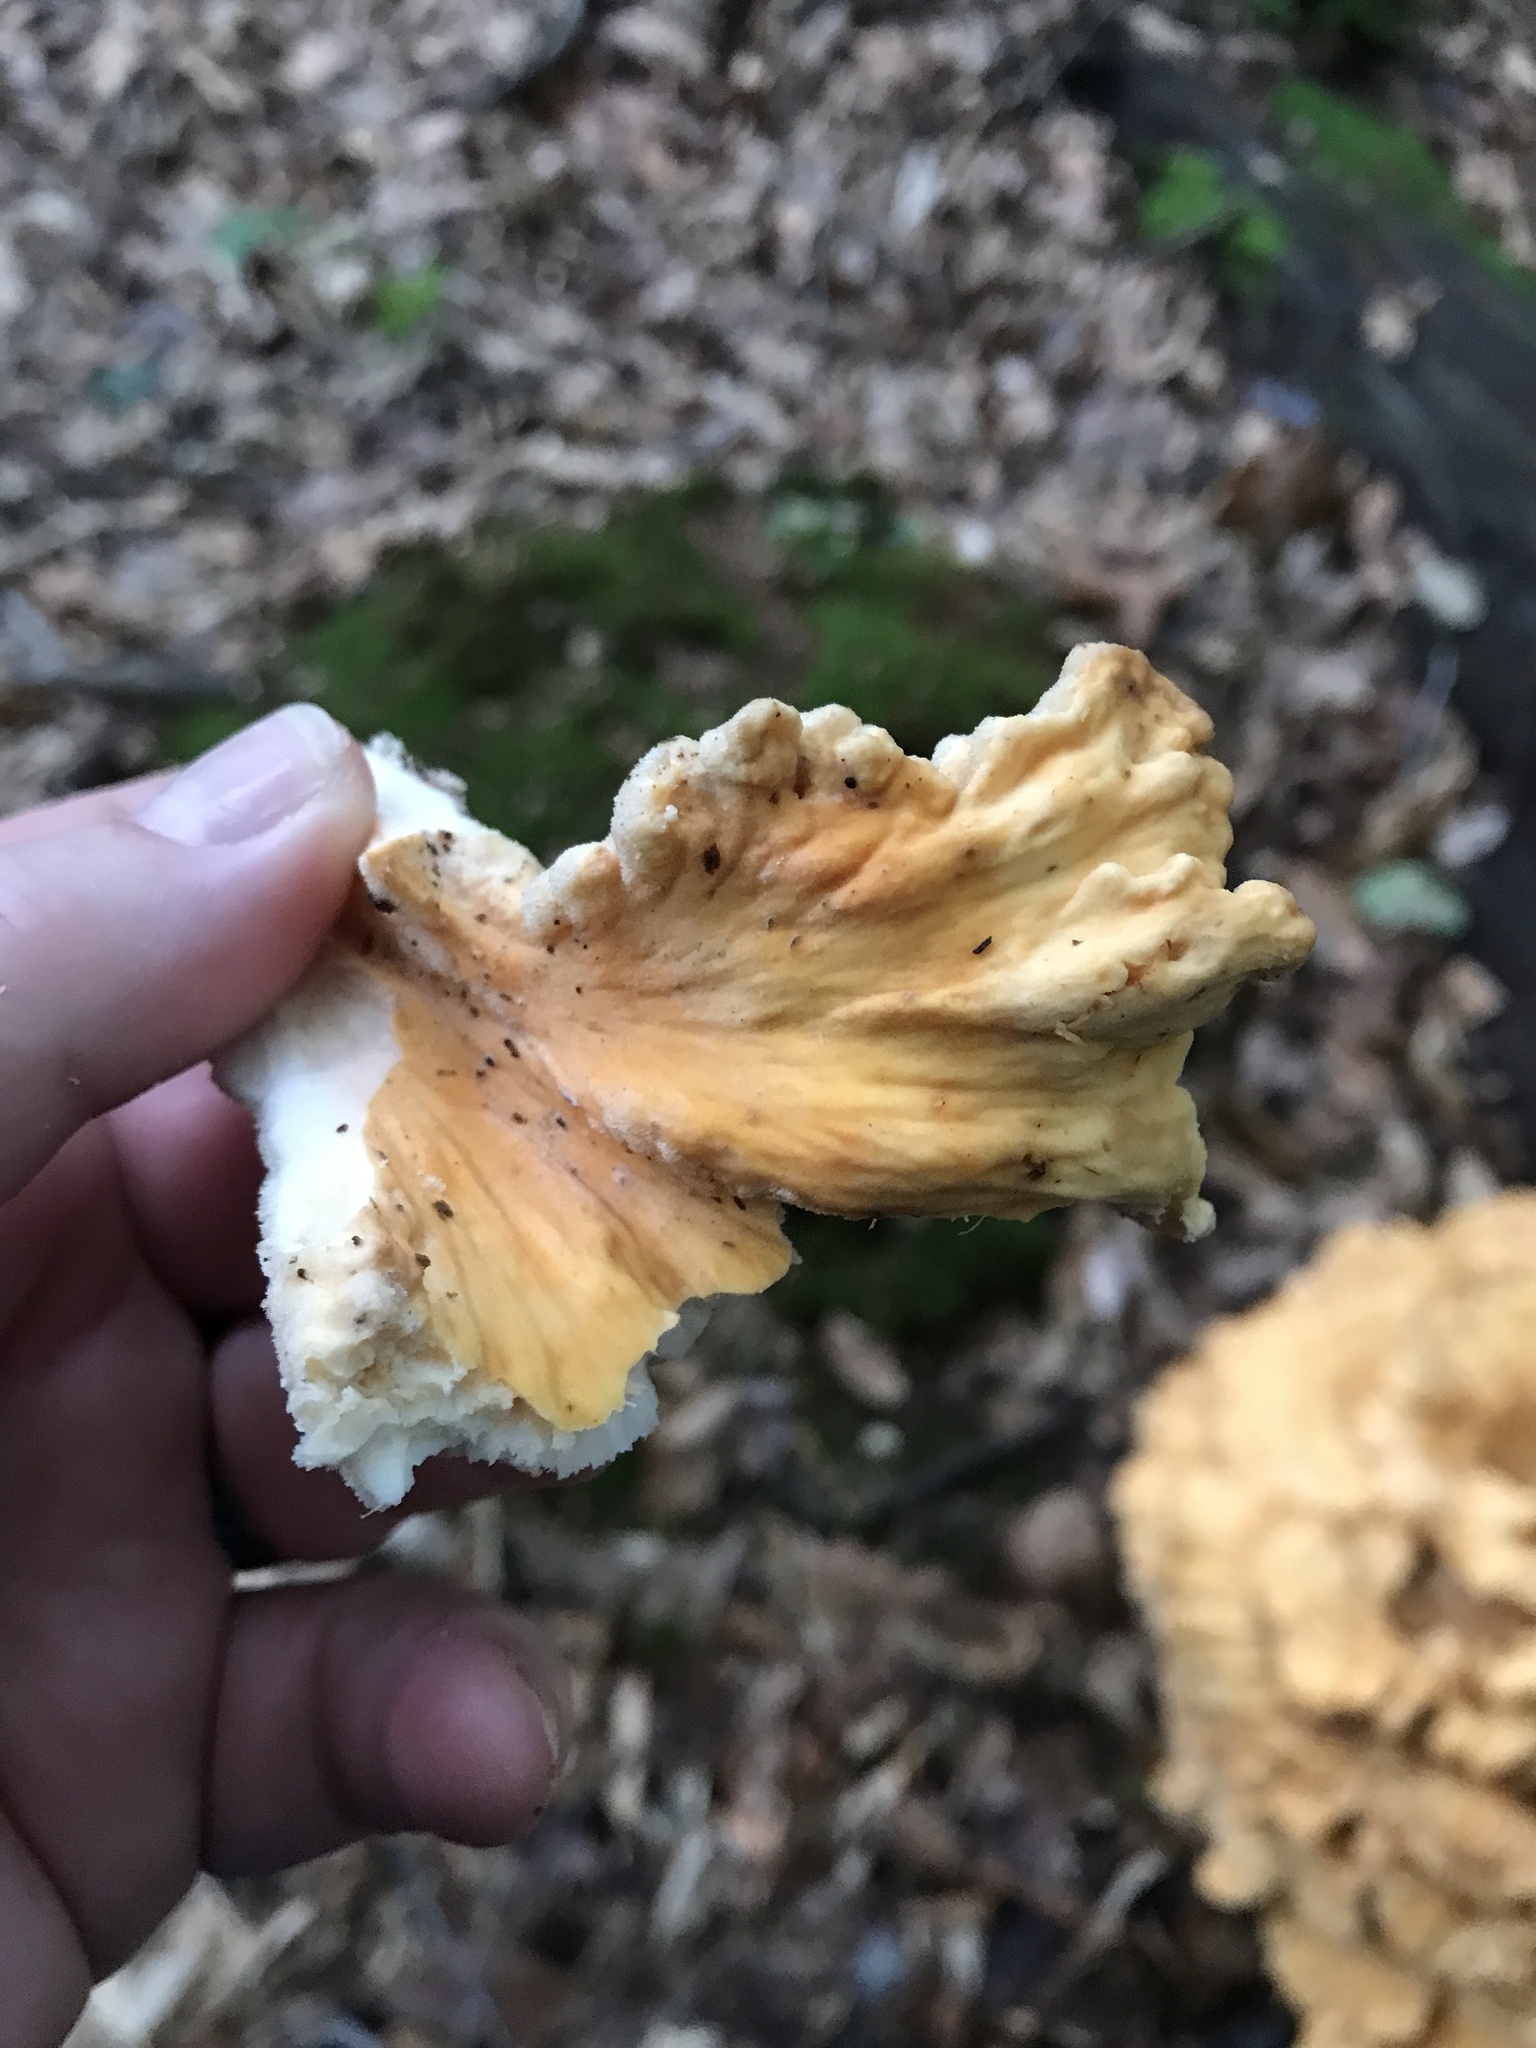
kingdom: Fungi
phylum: Basidiomycota
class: Agaricomycetes
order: Polyporales
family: Laetiporaceae
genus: Laetiporus
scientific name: Laetiporus sulphureus
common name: Chicken of the woods
